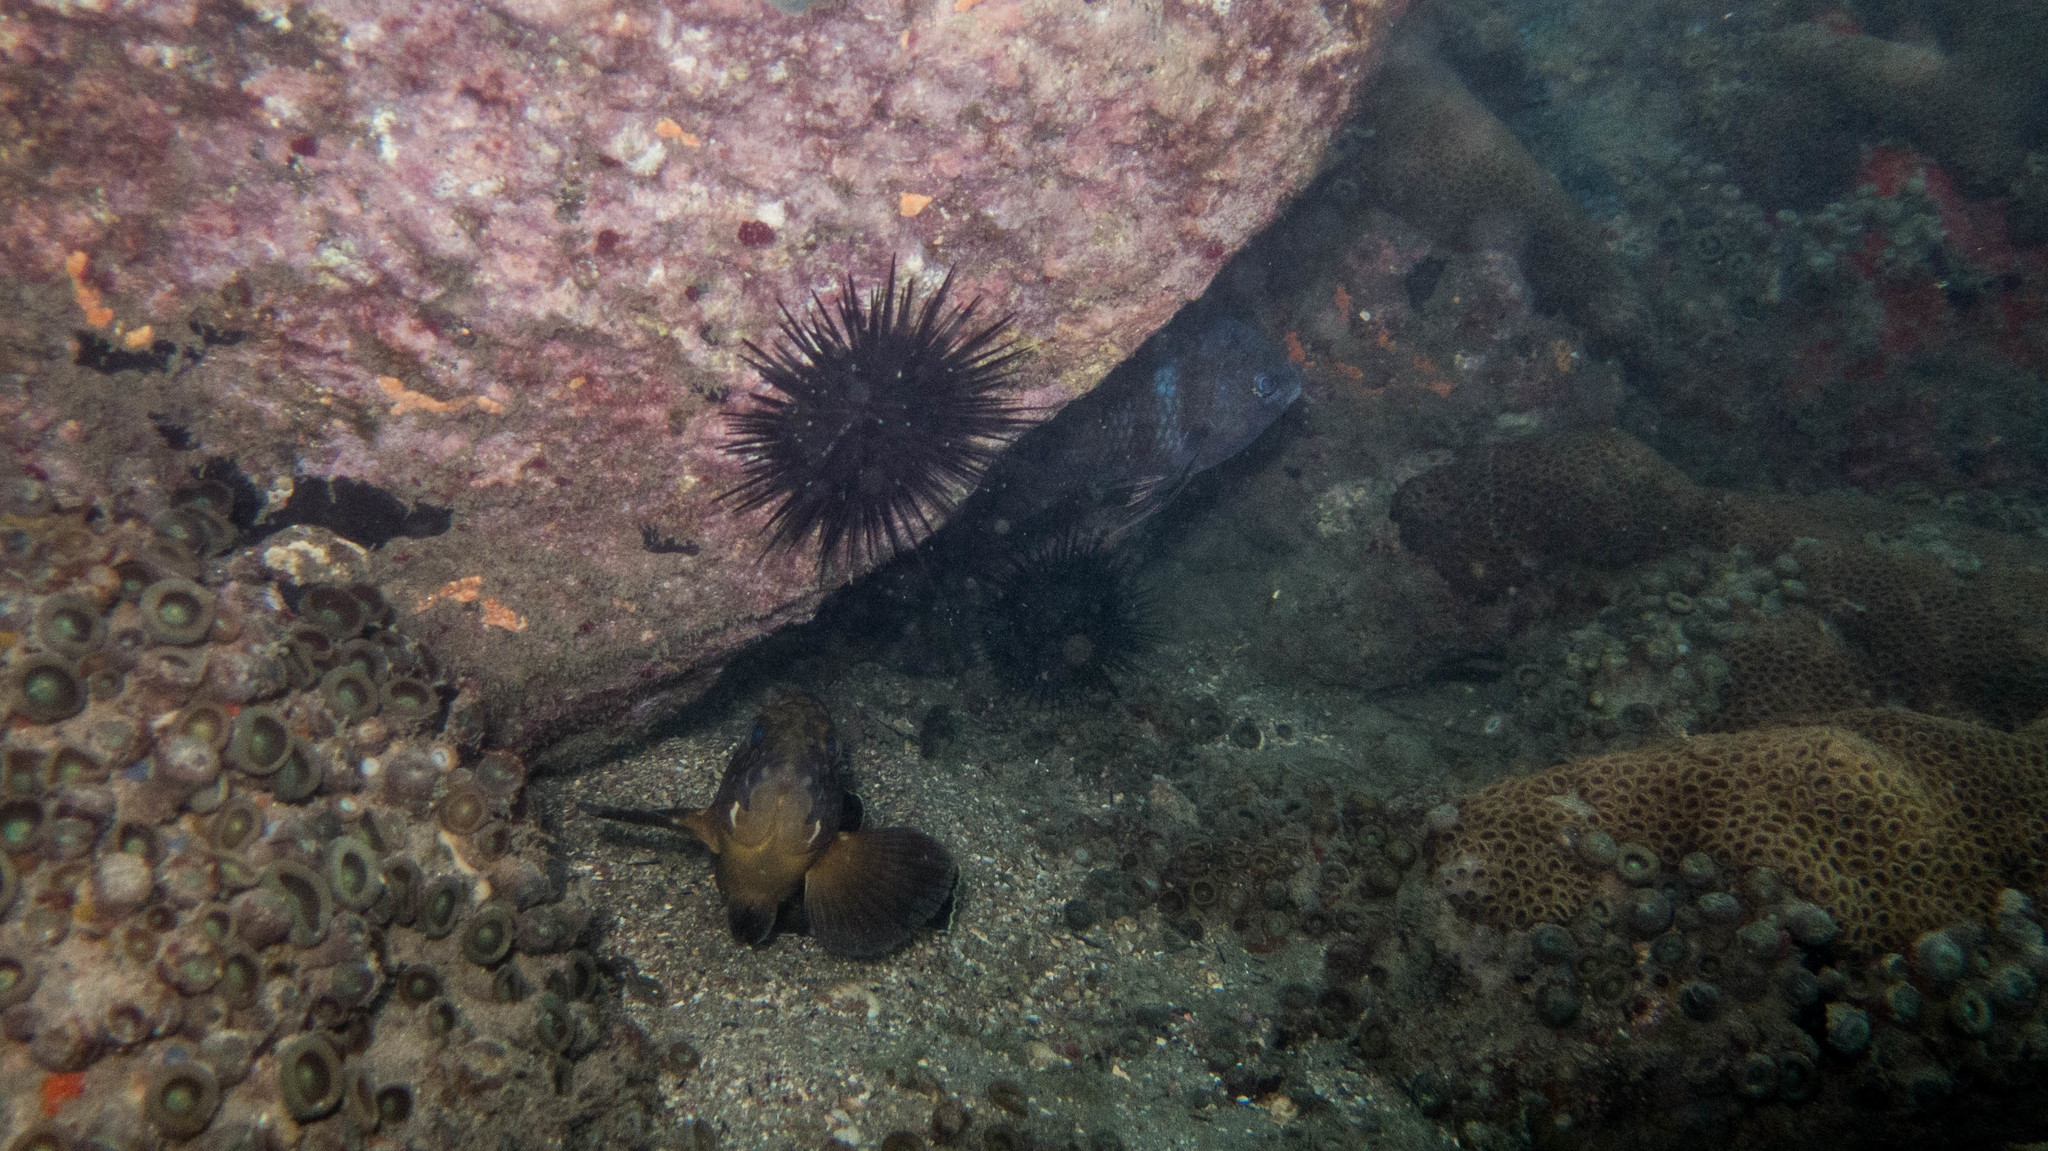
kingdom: Animalia
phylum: Chordata
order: Perciformes
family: Serranidae
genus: Epinephelus
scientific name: Epinephelus marginatus
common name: Dusky grouper
